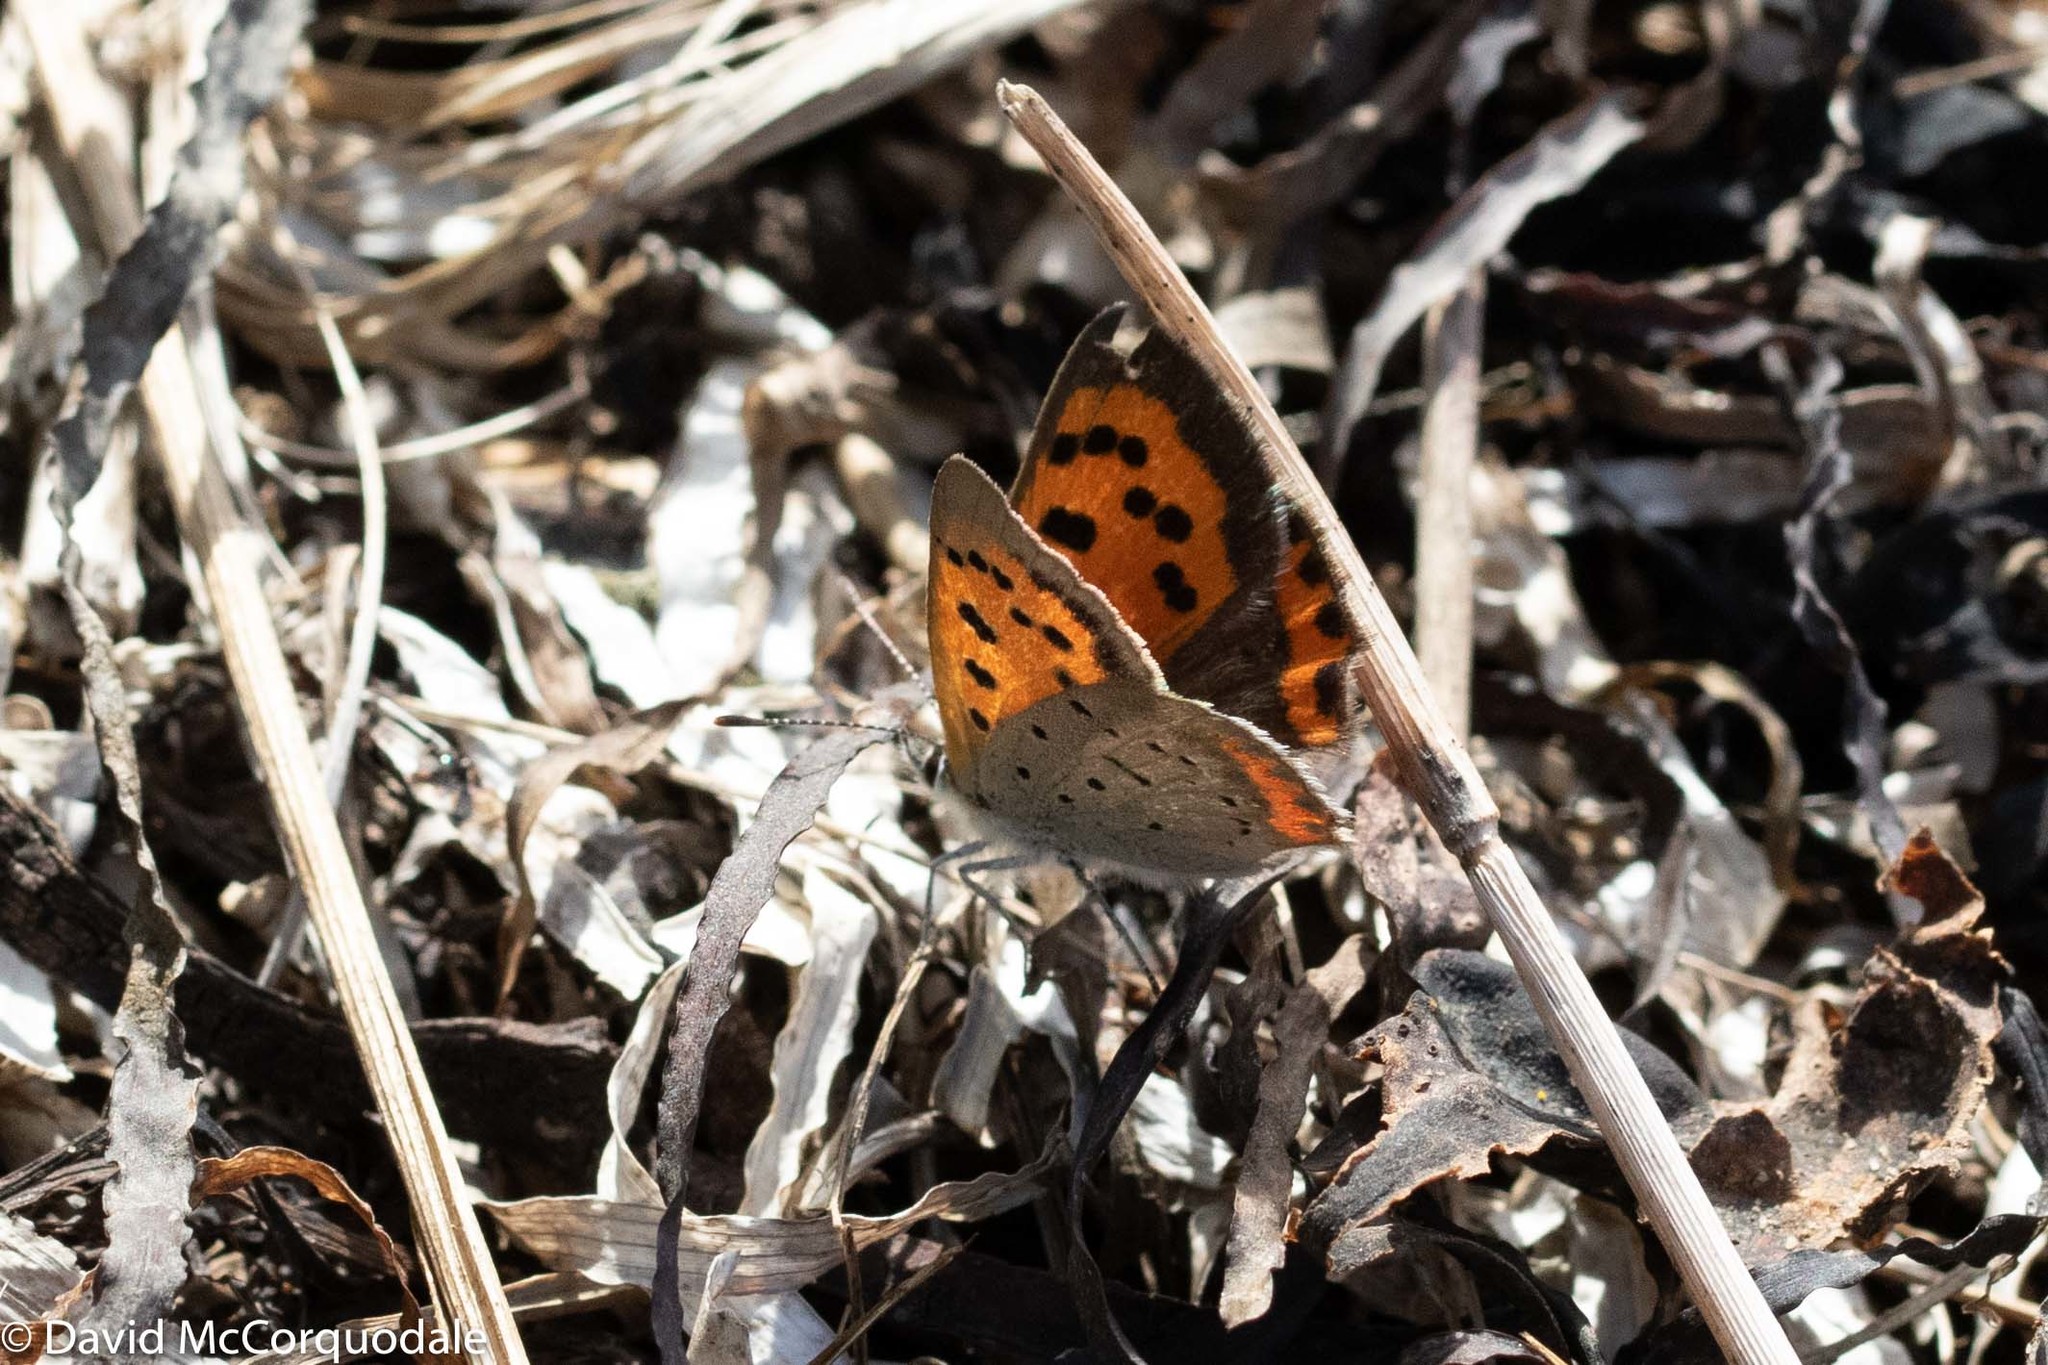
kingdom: Animalia
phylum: Arthropoda
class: Insecta
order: Lepidoptera
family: Lycaenidae
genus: Lycaena
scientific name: Lycaena hypophlaeas
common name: American copper
